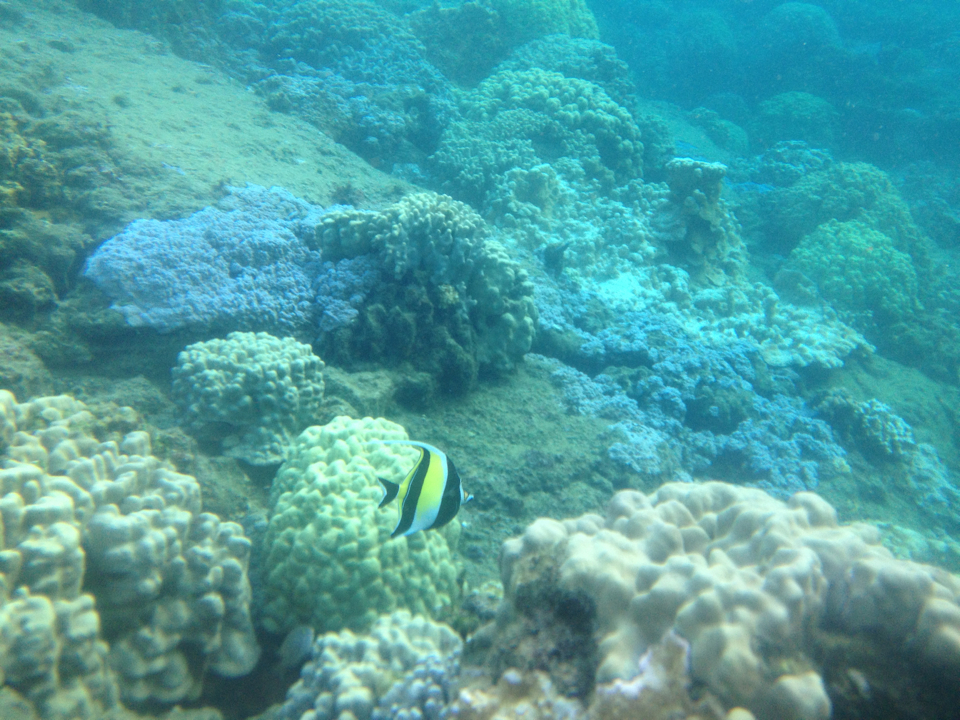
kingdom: Animalia
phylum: Chordata
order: Perciformes
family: Zanclidae
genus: Zanclus
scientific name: Zanclus cornutus
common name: Moorish idol
